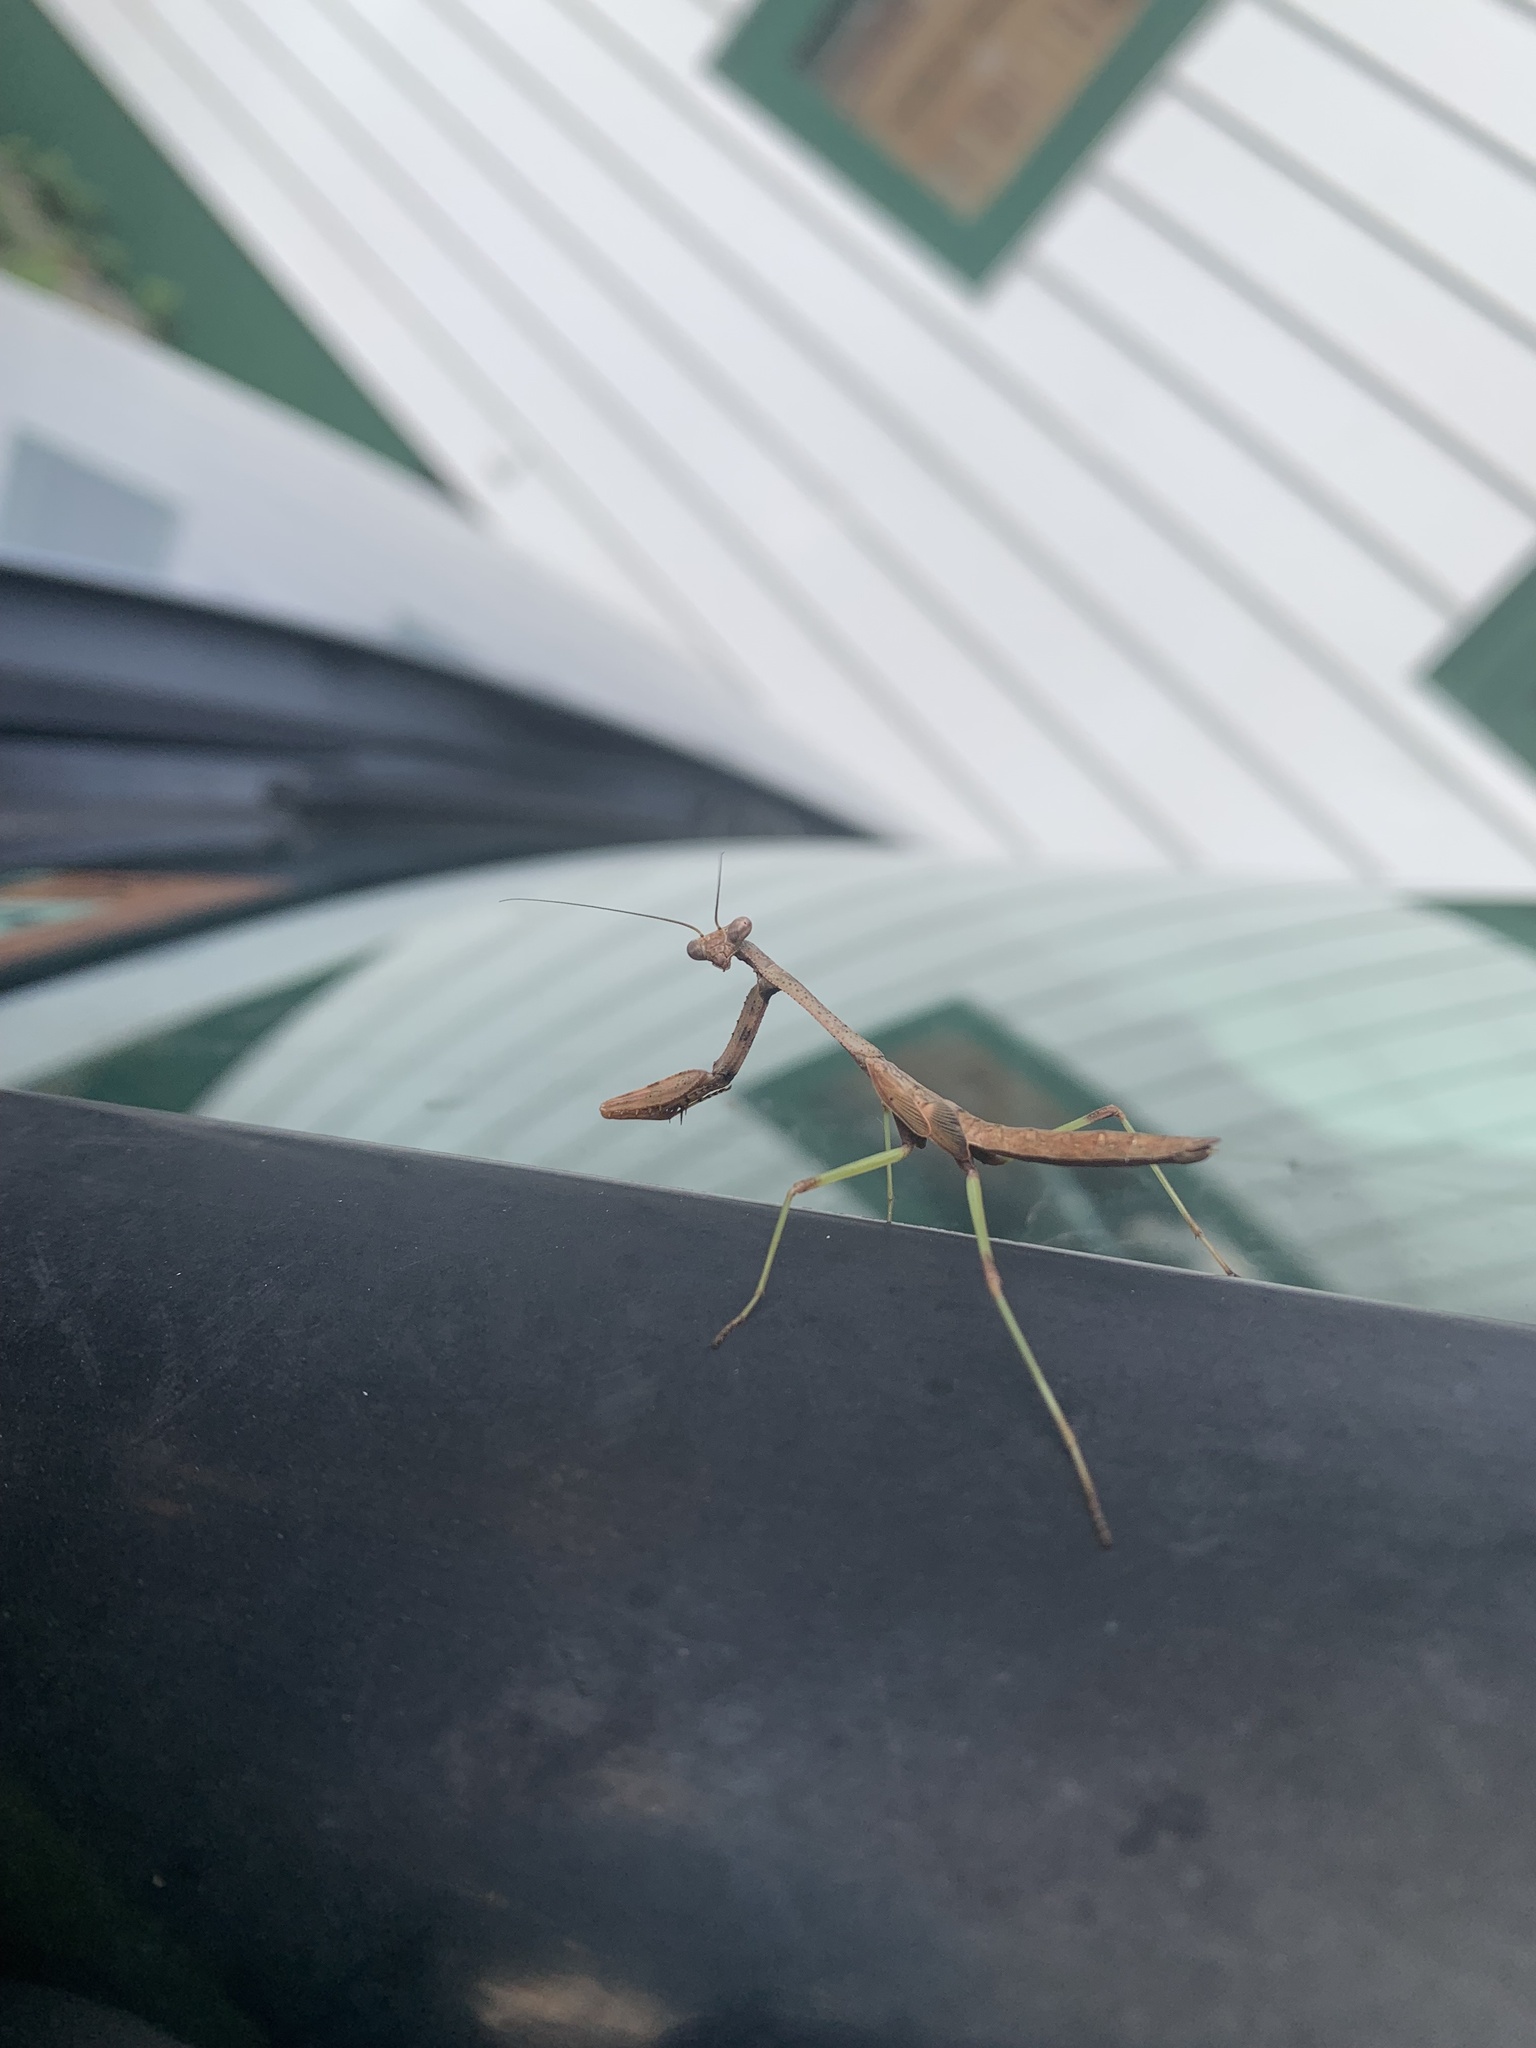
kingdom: Animalia
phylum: Arthropoda
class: Insecta
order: Mantodea
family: Mantidae
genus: Stagmomantis
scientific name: Stagmomantis carolina
